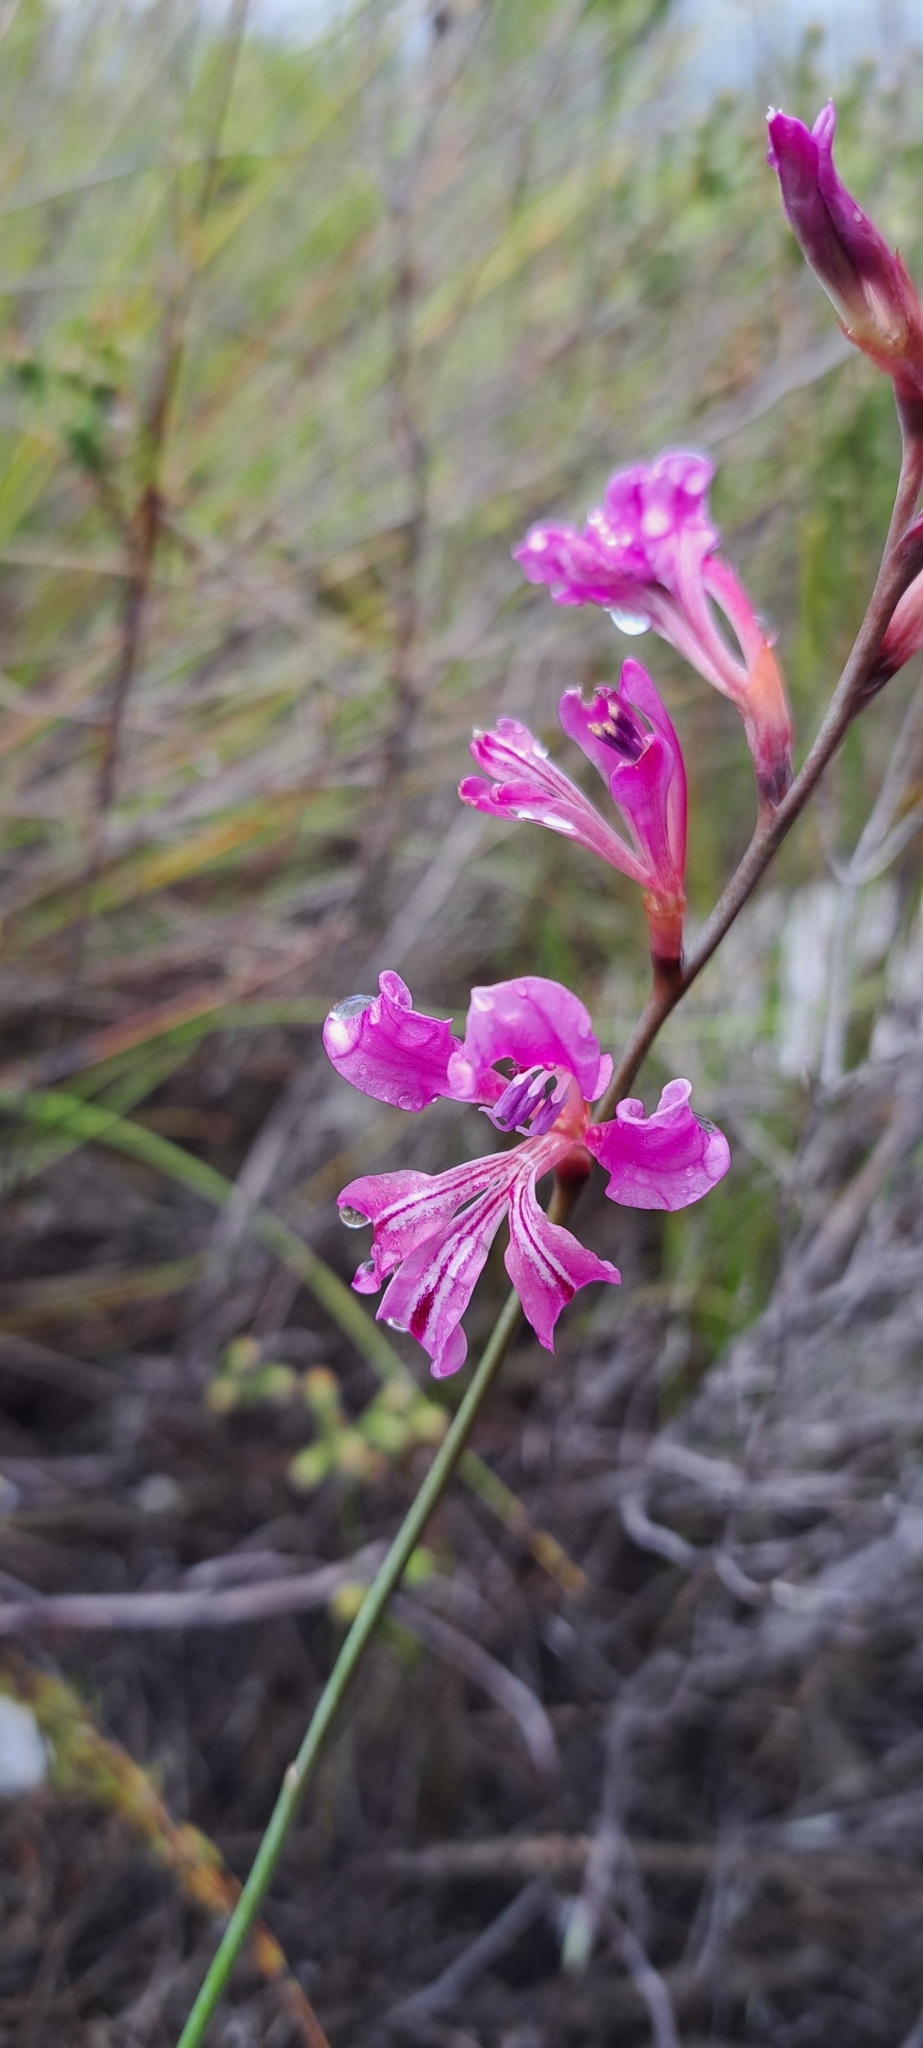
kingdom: Plantae
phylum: Tracheophyta
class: Liliopsida
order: Asparagales
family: Iridaceae
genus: Tritoniopsis
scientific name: Tritoniopsis lata
